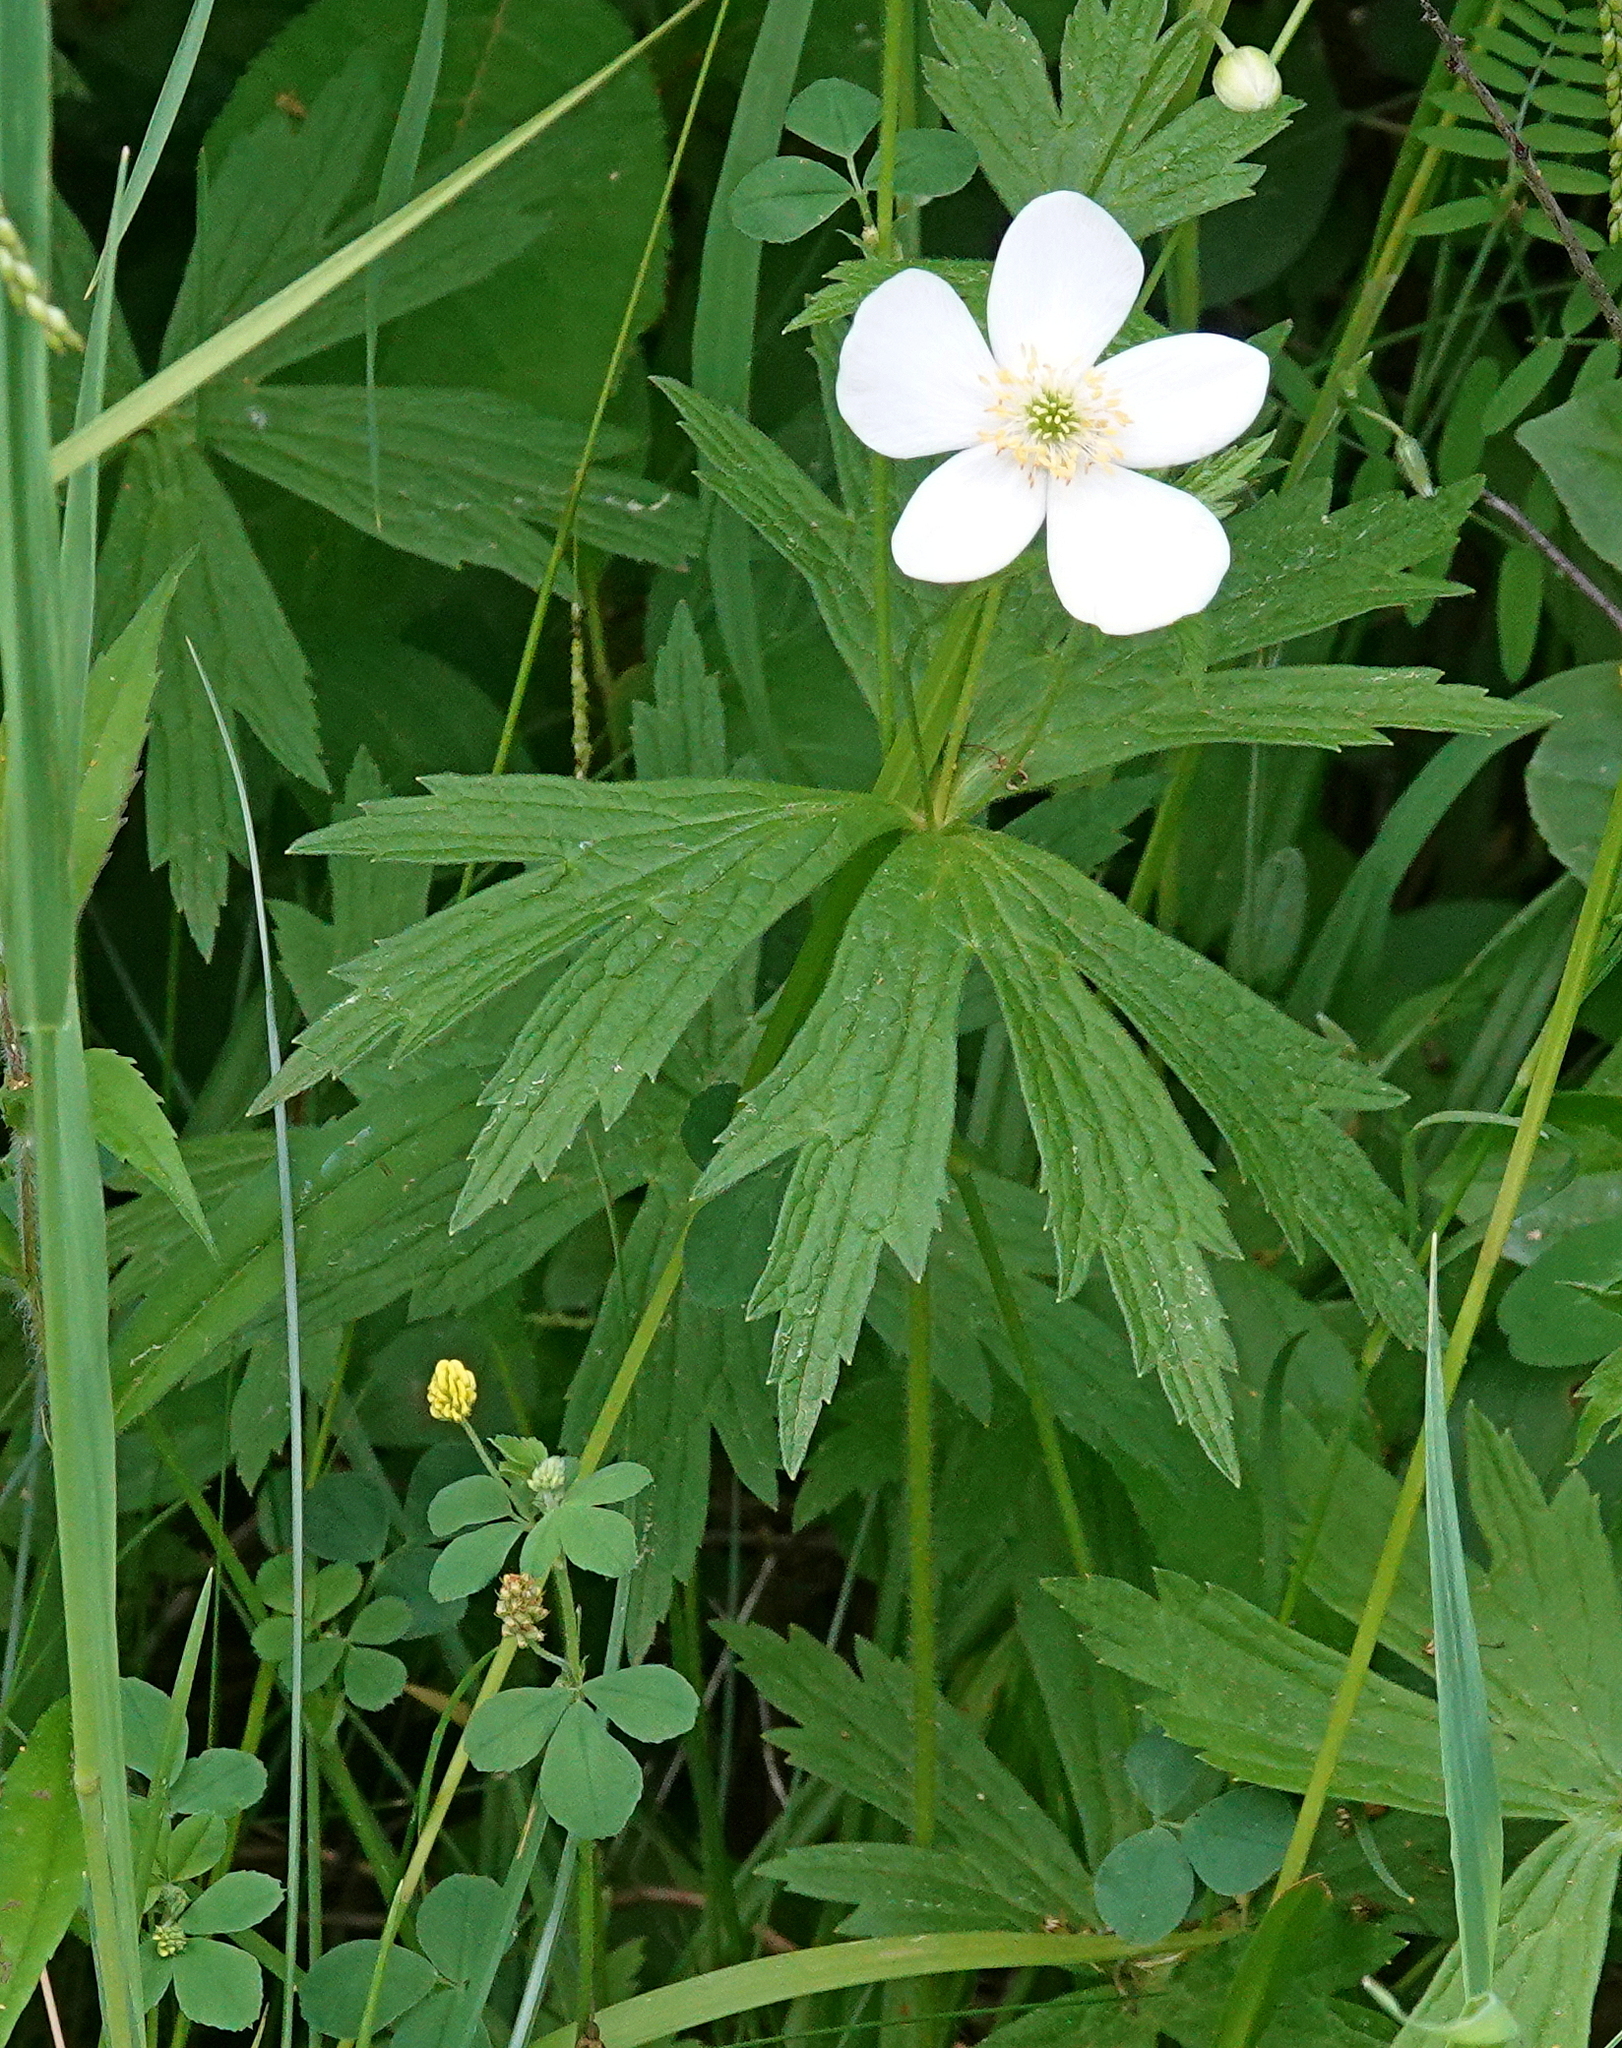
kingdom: Plantae
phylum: Tracheophyta
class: Magnoliopsida
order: Ranunculales
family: Ranunculaceae
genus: Anemonastrum
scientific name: Anemonastrum canadense
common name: Canada anemone
